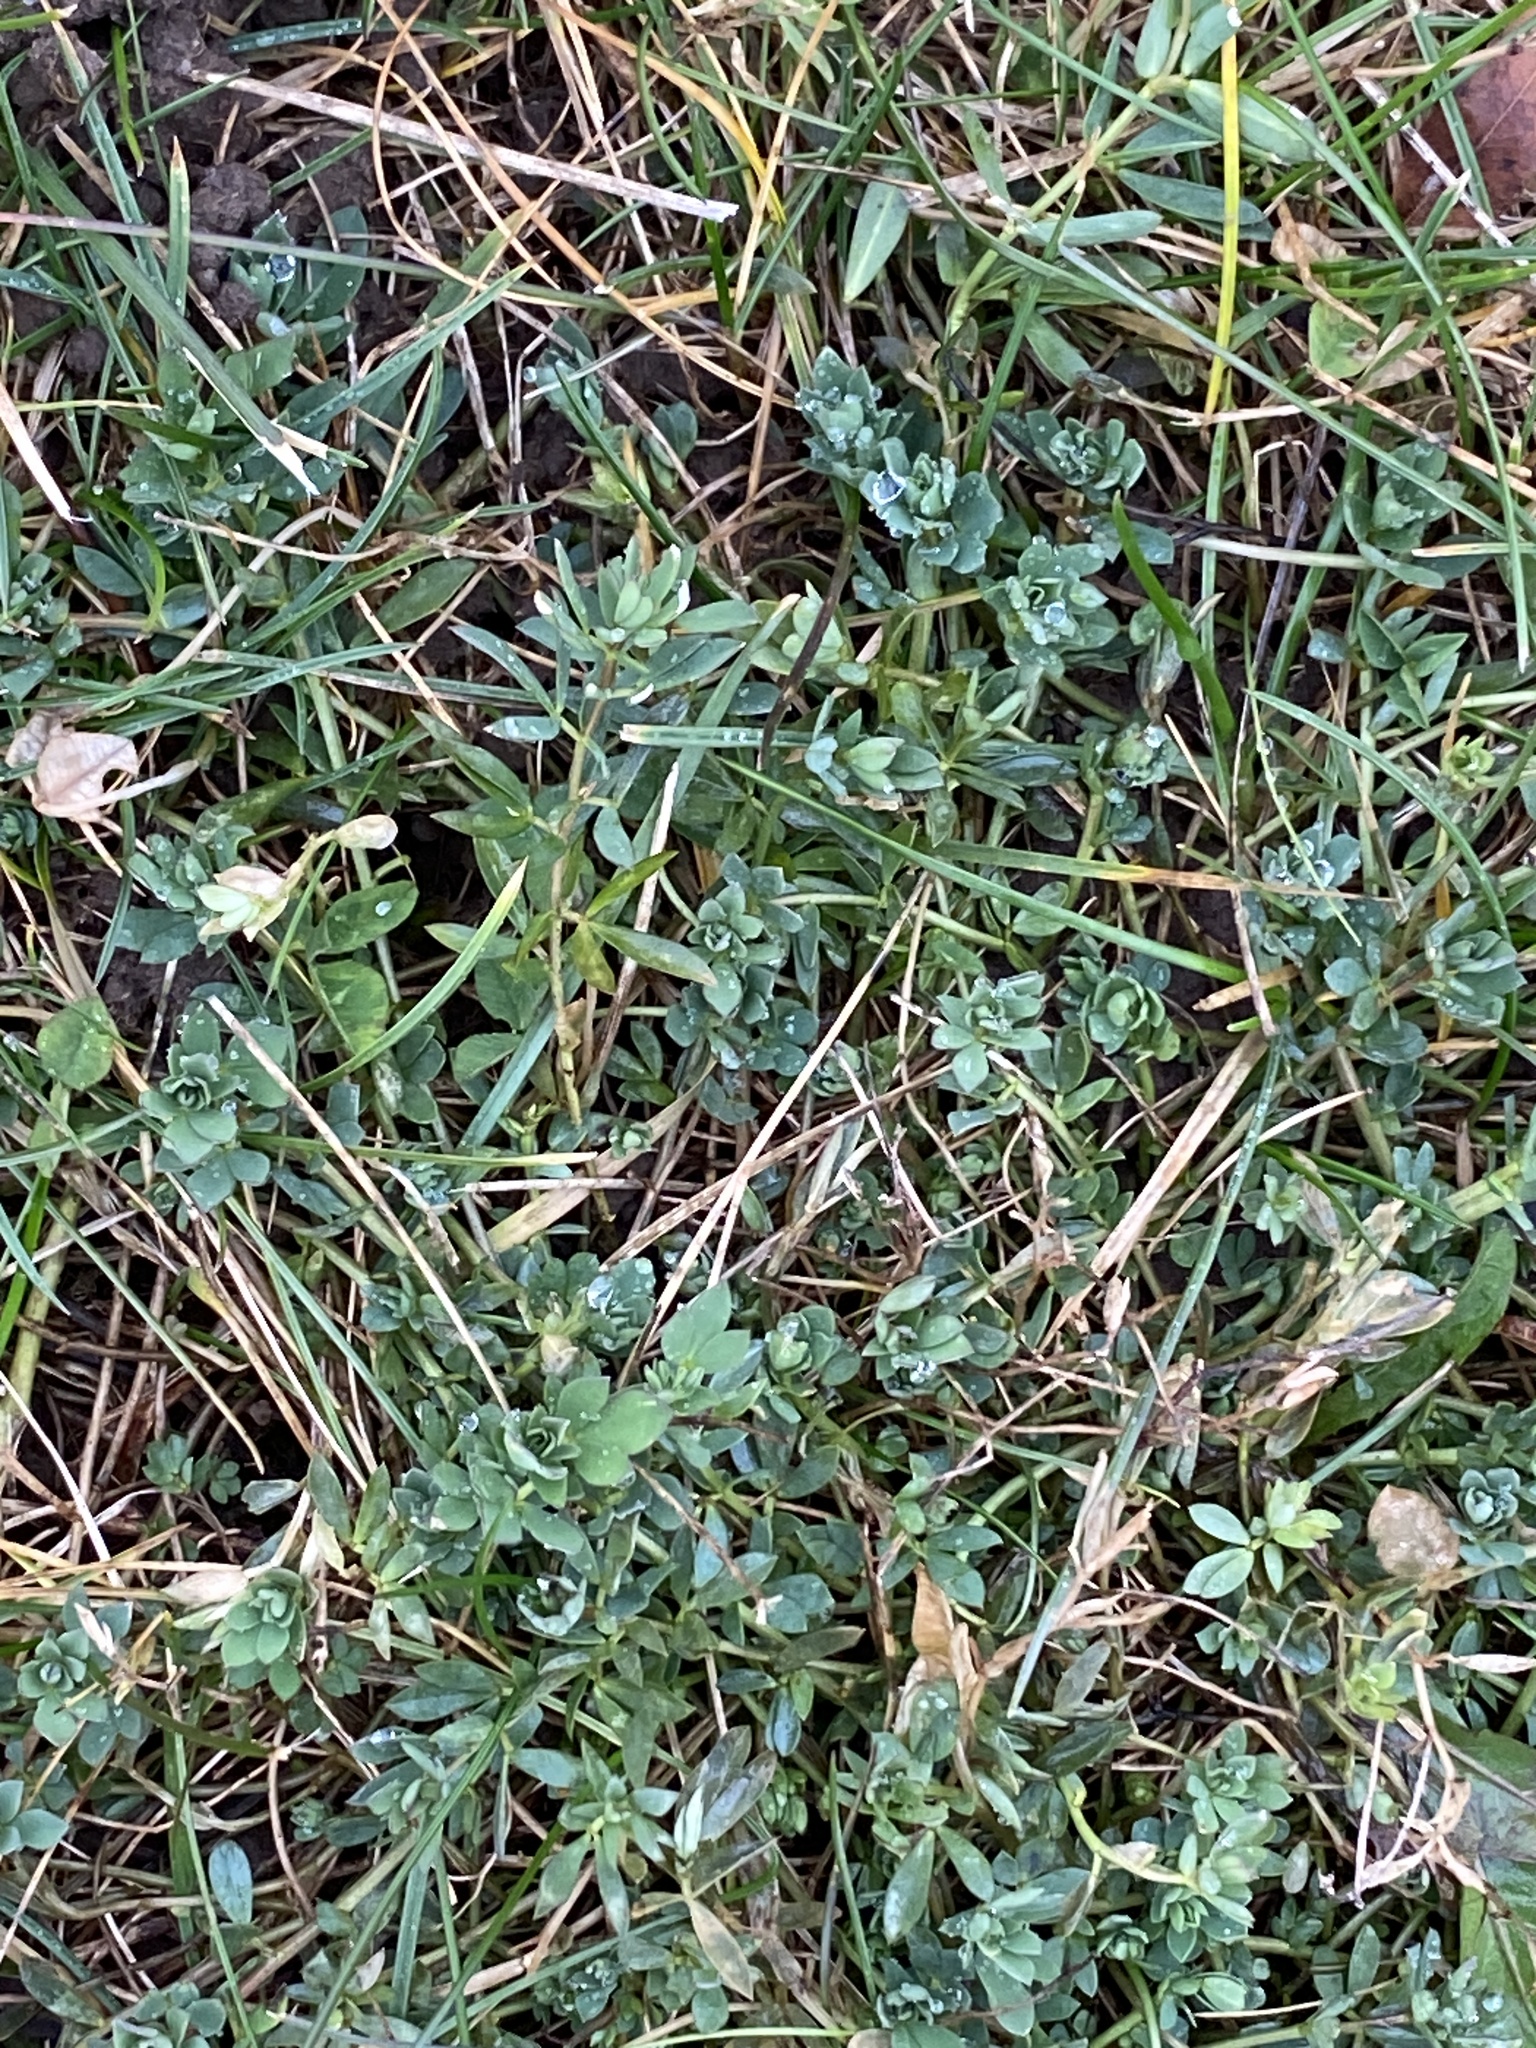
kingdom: Plantae
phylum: Tracheophyta
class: Magnoliopsida
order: Fabales
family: Fabaceae
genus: Lotus
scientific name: Lotus corniculatus
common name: Common bird's-foot-trefoil
